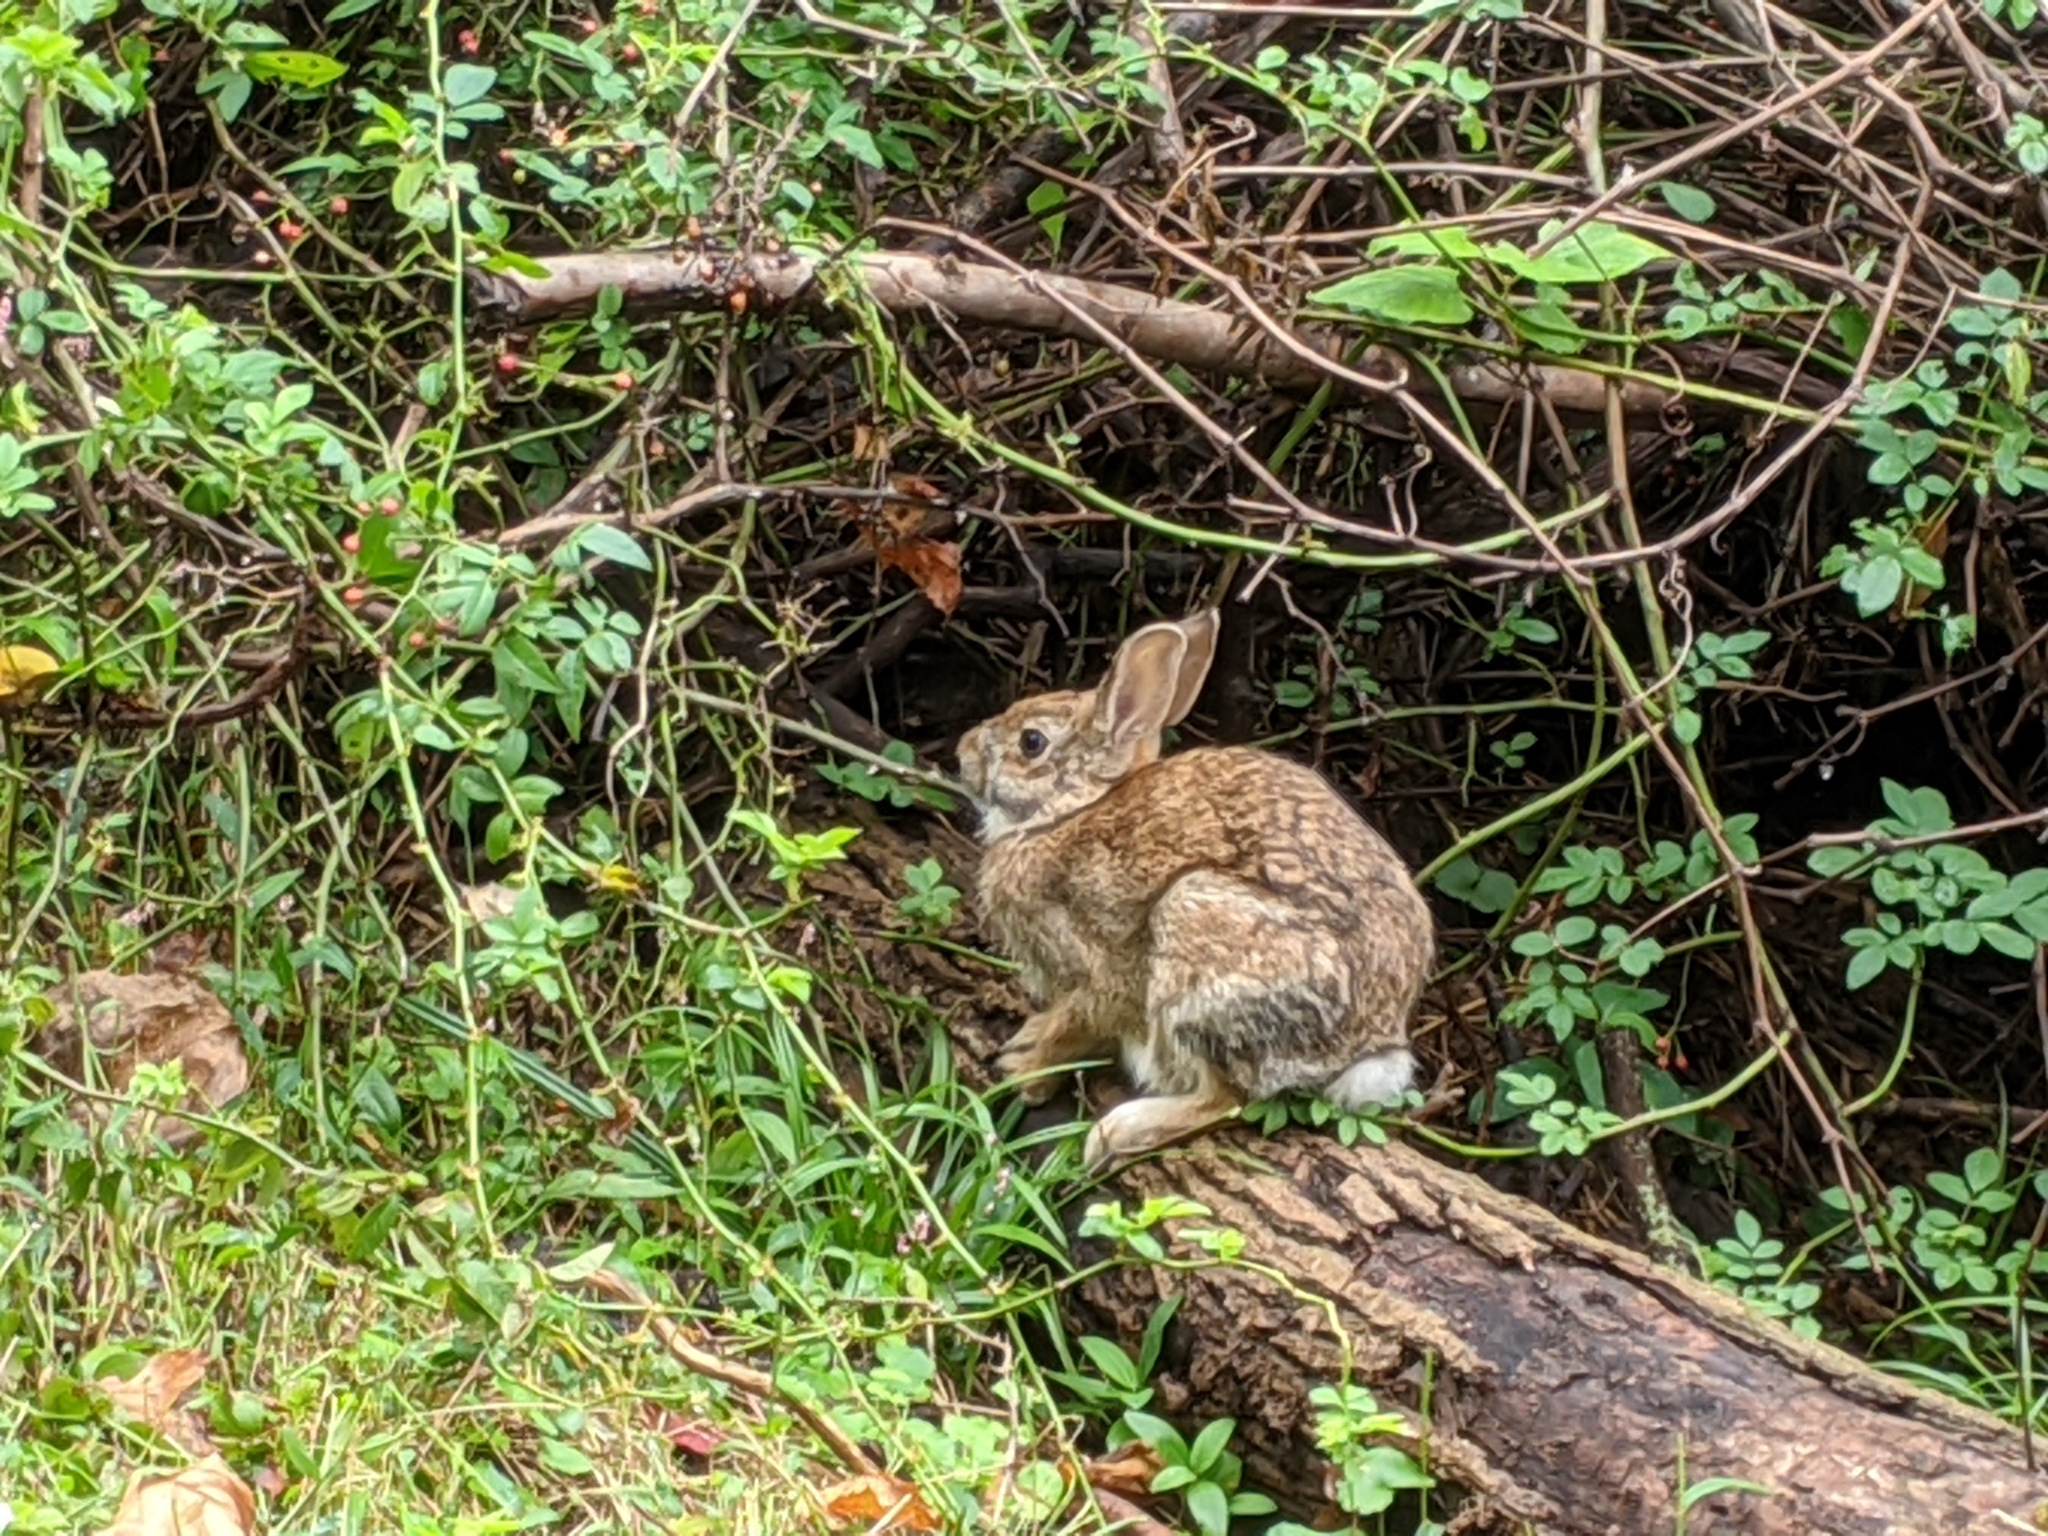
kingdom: Animalia
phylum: Chordata
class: Mammalia
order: Lagomorpha
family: Leporidae
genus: Sylvilagus
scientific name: Sylvilagus floridanus
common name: Eastern cottontail
